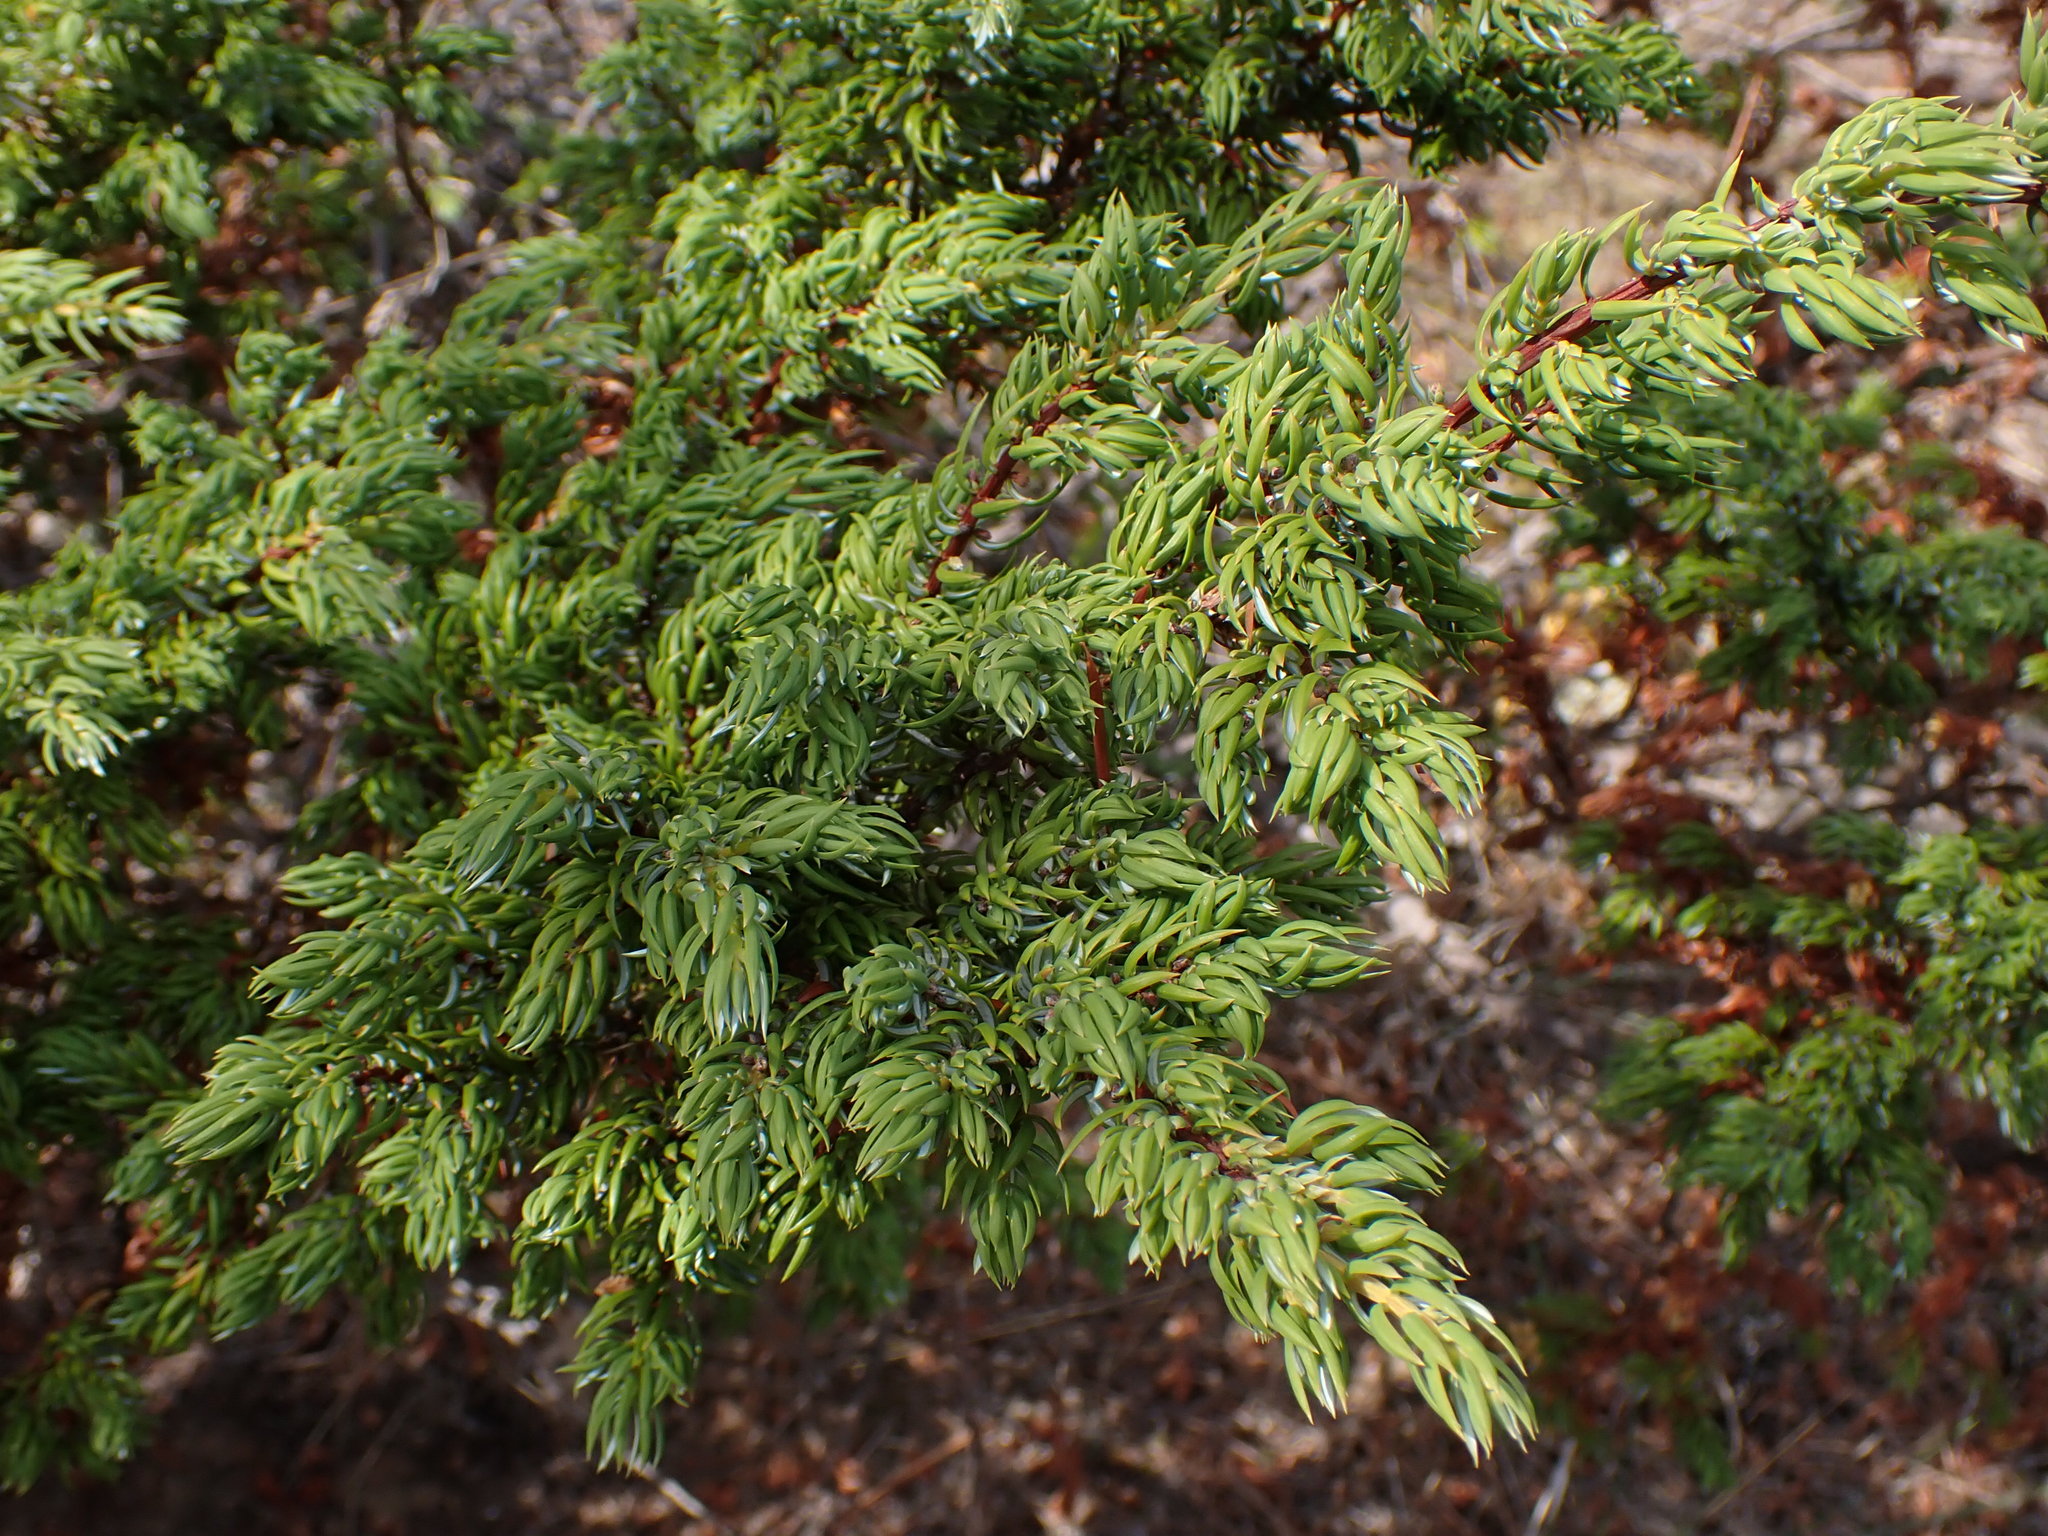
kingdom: Plantae
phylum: Tracheophyta
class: Pinopsida
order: Pinales
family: Cupressaceae
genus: Juniperus
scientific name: Juniperus communis
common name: Common juniper
